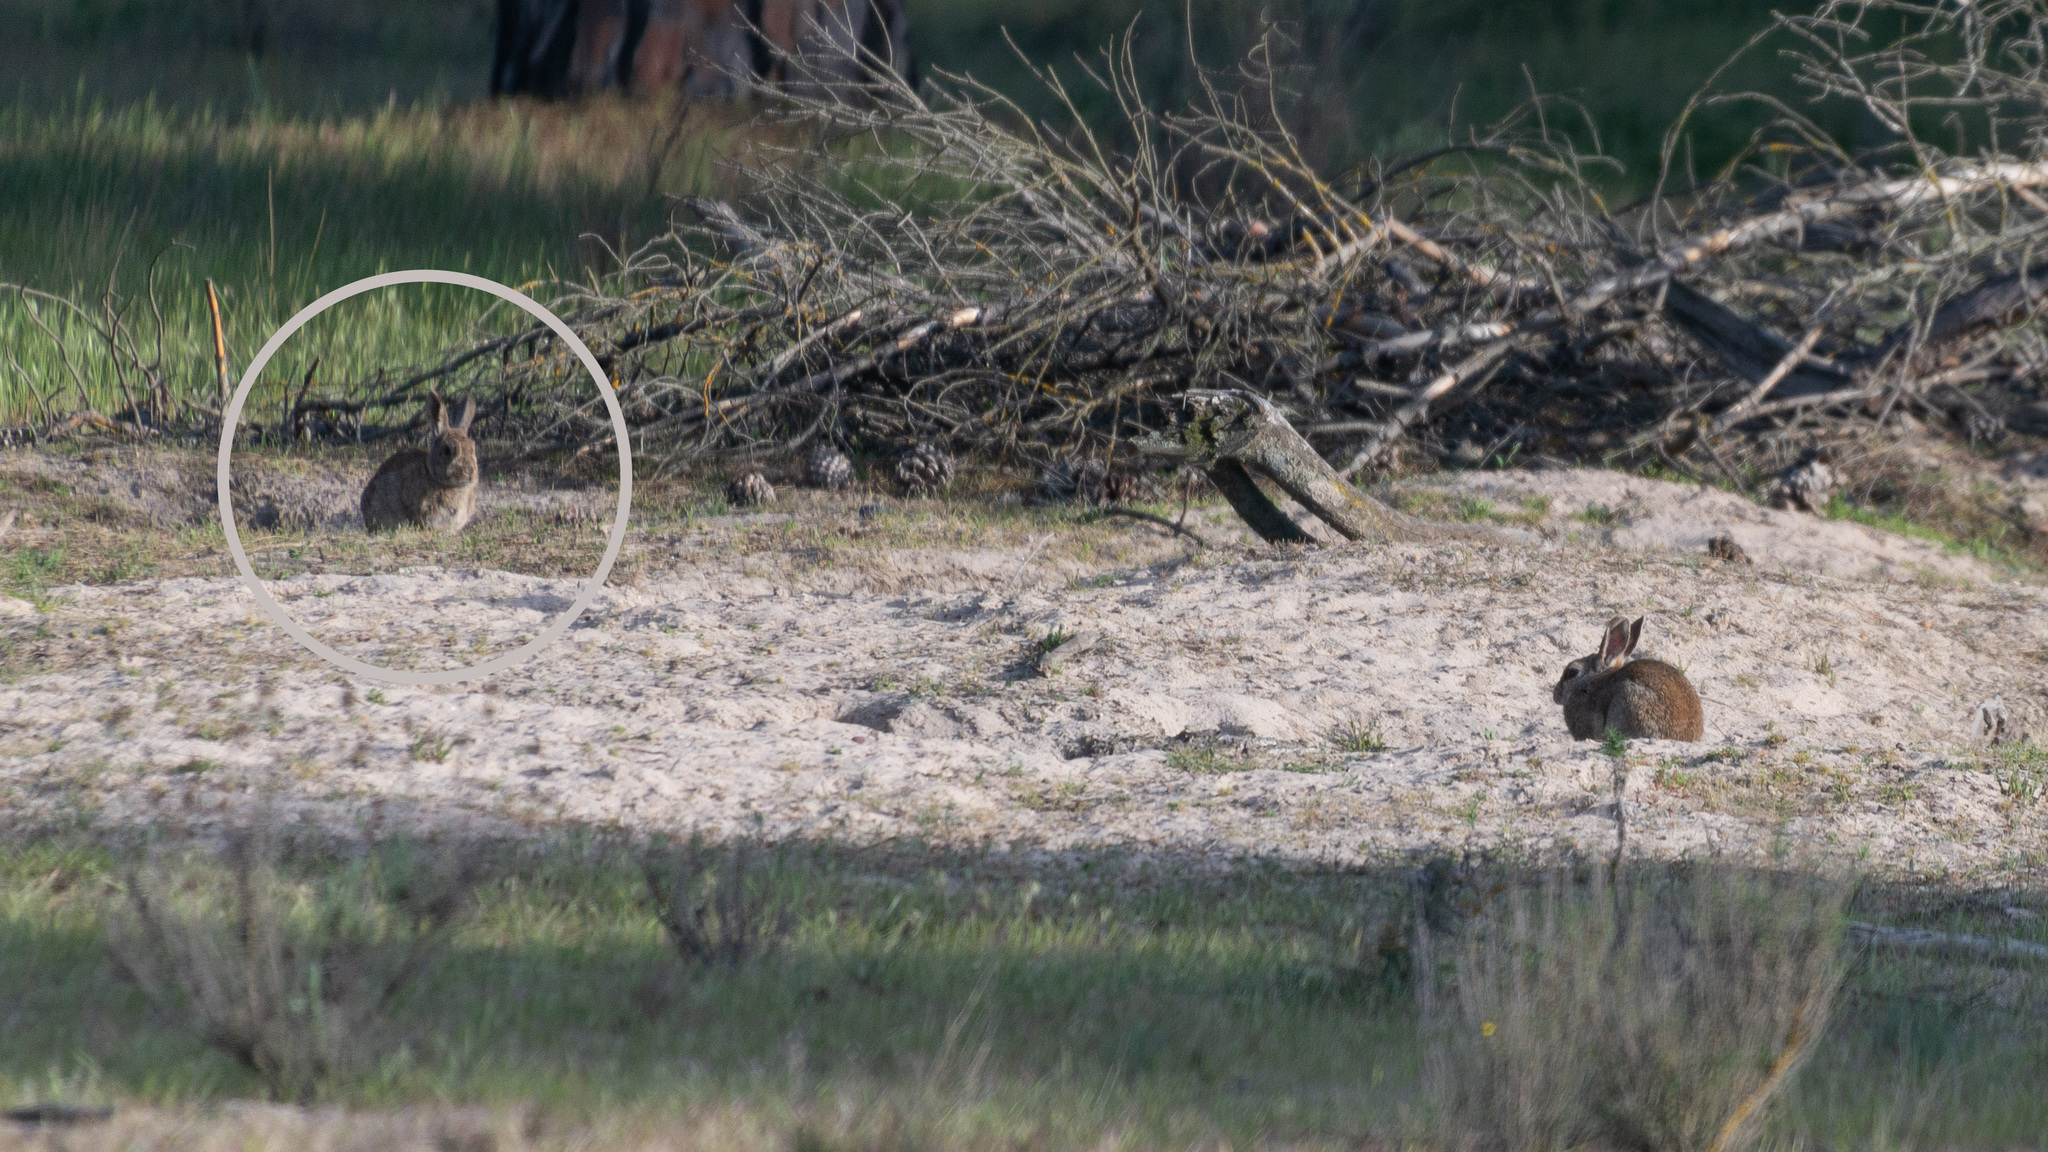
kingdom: Animalia
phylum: Chordata
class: Mammalia
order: Lagomorpha
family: Leporidae
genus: Oryctolagus
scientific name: Oryctolagus cuniculus
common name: European rabbit
